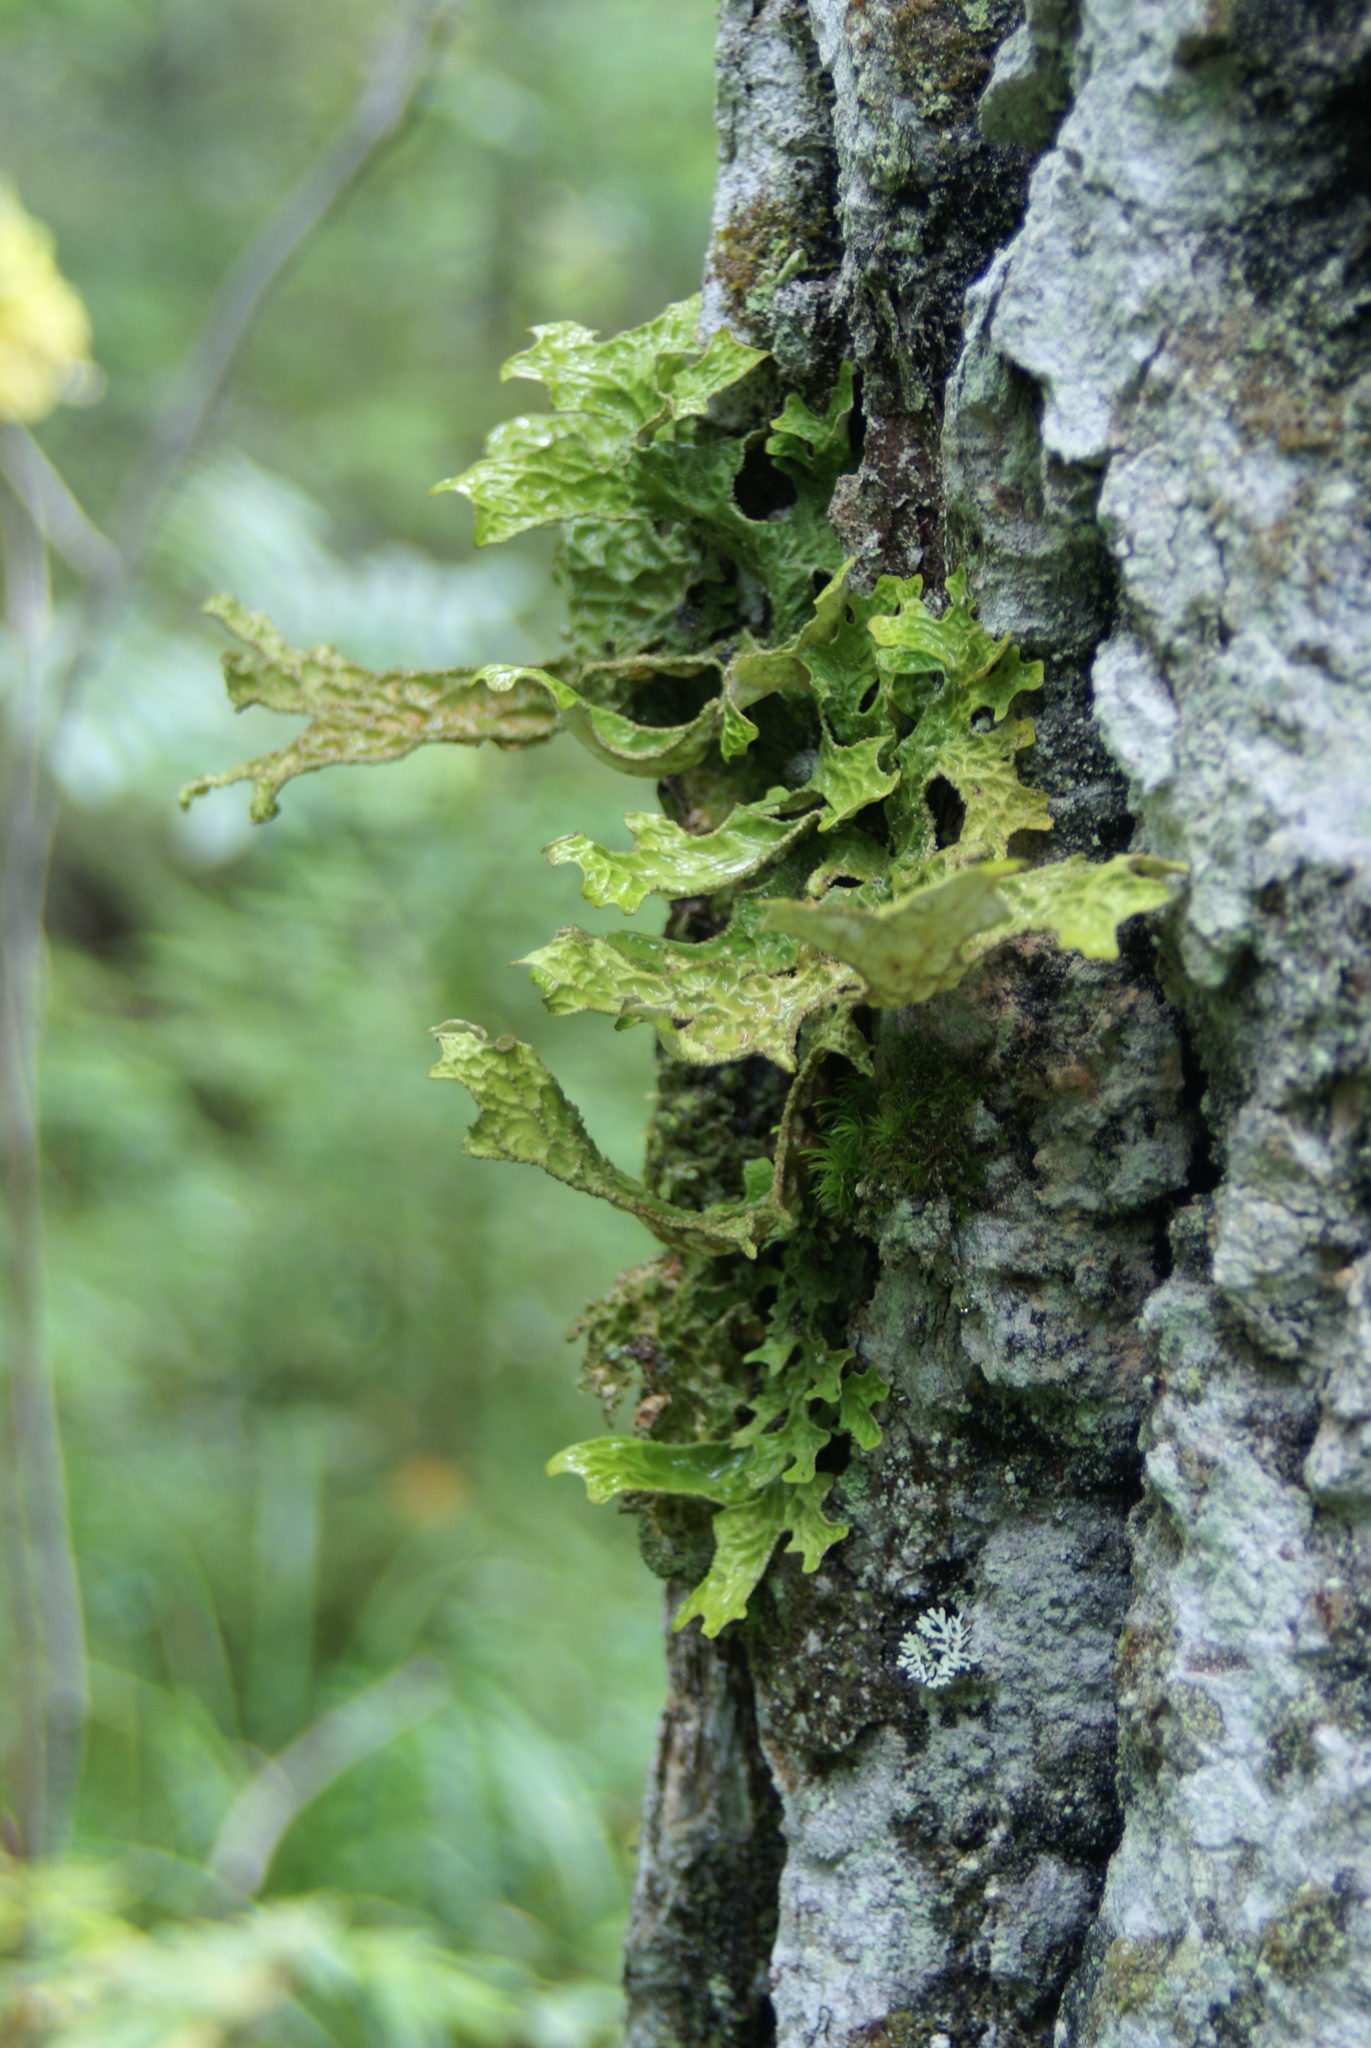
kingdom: Fungi
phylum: Ascomycota
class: Lecanoromycetes
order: Peltigerales
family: Lobariaceae
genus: Lobaria
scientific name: Lobaria pulmonaria
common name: Lungwort
